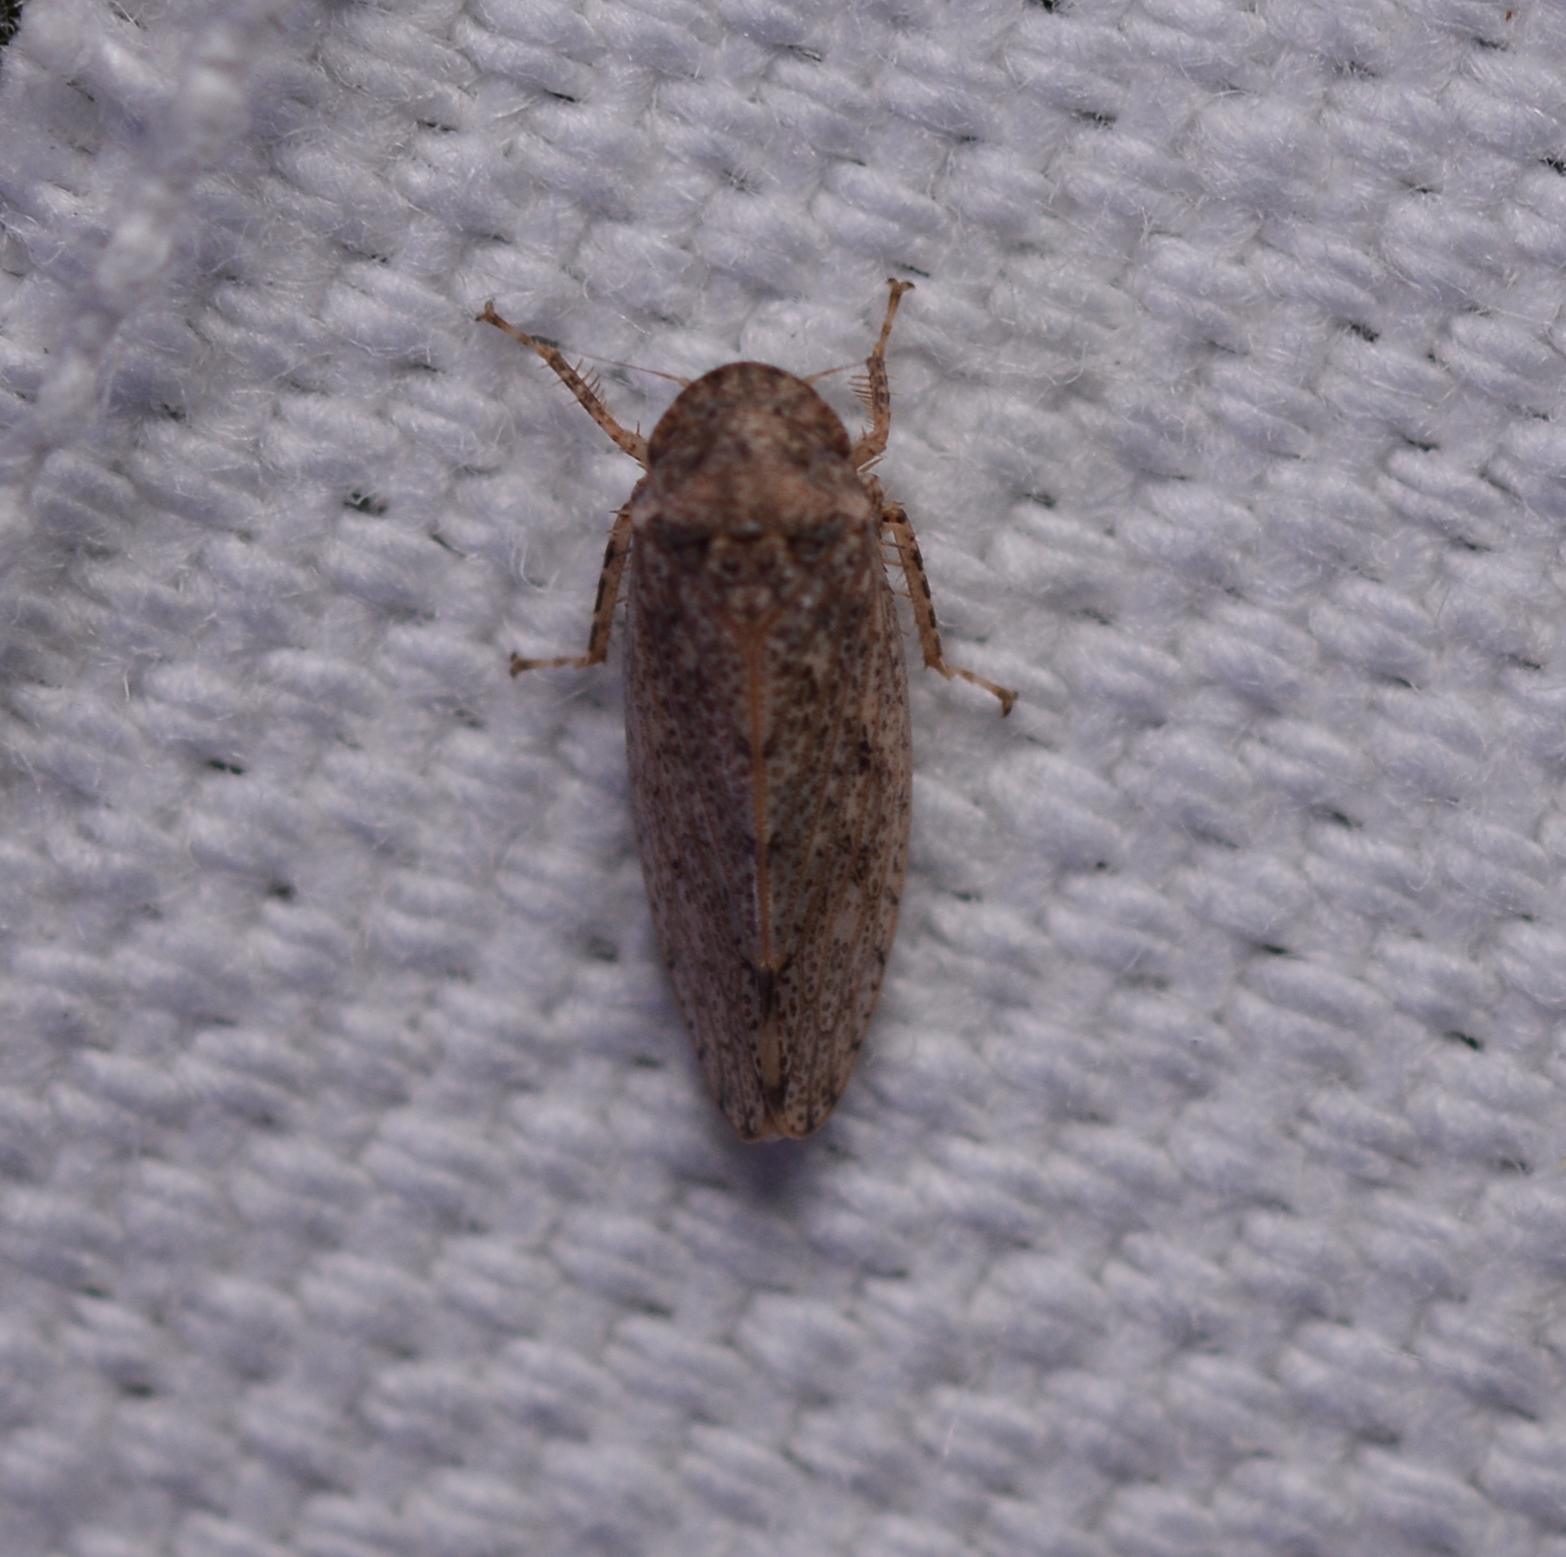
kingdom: Animalia
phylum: Arthropoda
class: Insecta
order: Hemiptera
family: Cicadellidae
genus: Curtara
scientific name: Curtara insularis
